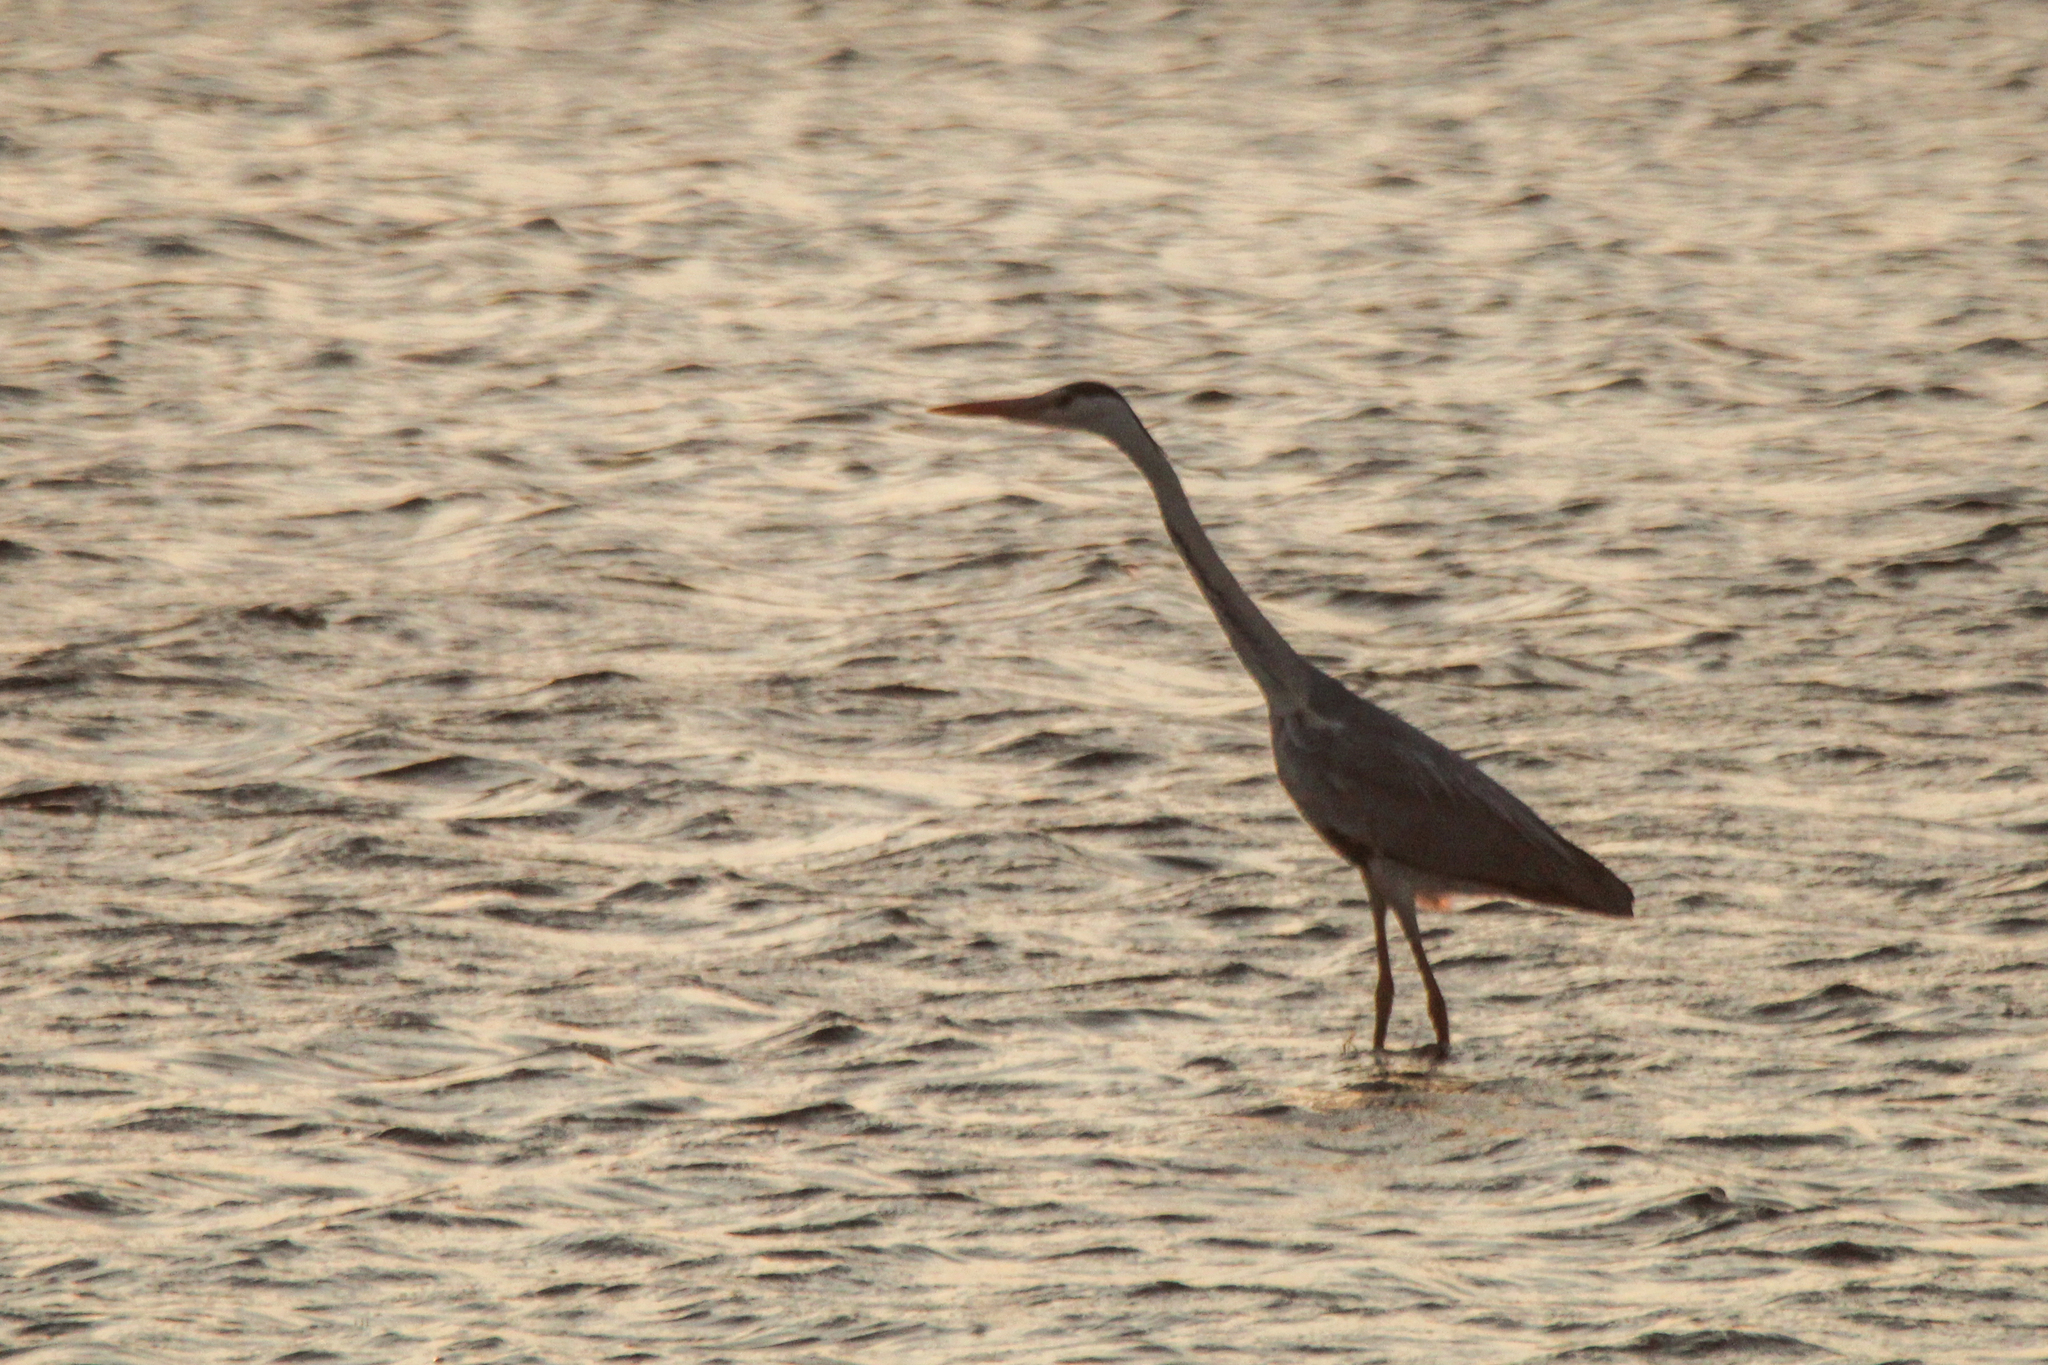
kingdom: Animalia
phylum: Chordata
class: Aves
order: Pelecaniformes
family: Ardeidae
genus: Ardea
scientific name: Ardea cinerea
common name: Grey heron
